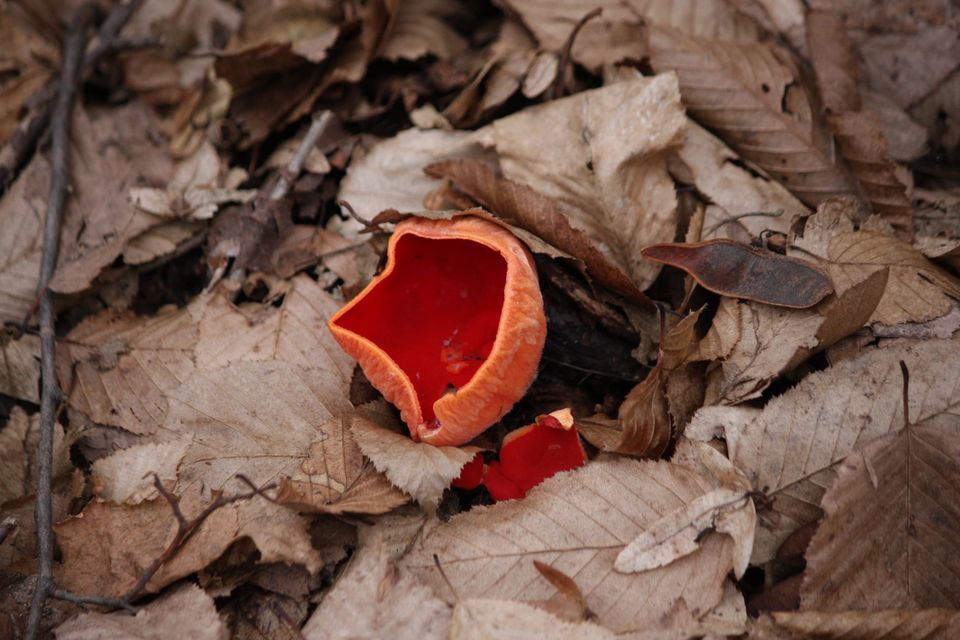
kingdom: Fungi
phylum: Ascomycota
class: Pezizomycetes
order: Pezizales
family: Sarcoscyphaceae
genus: Sarcoscypha
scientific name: Sarcoscypha
